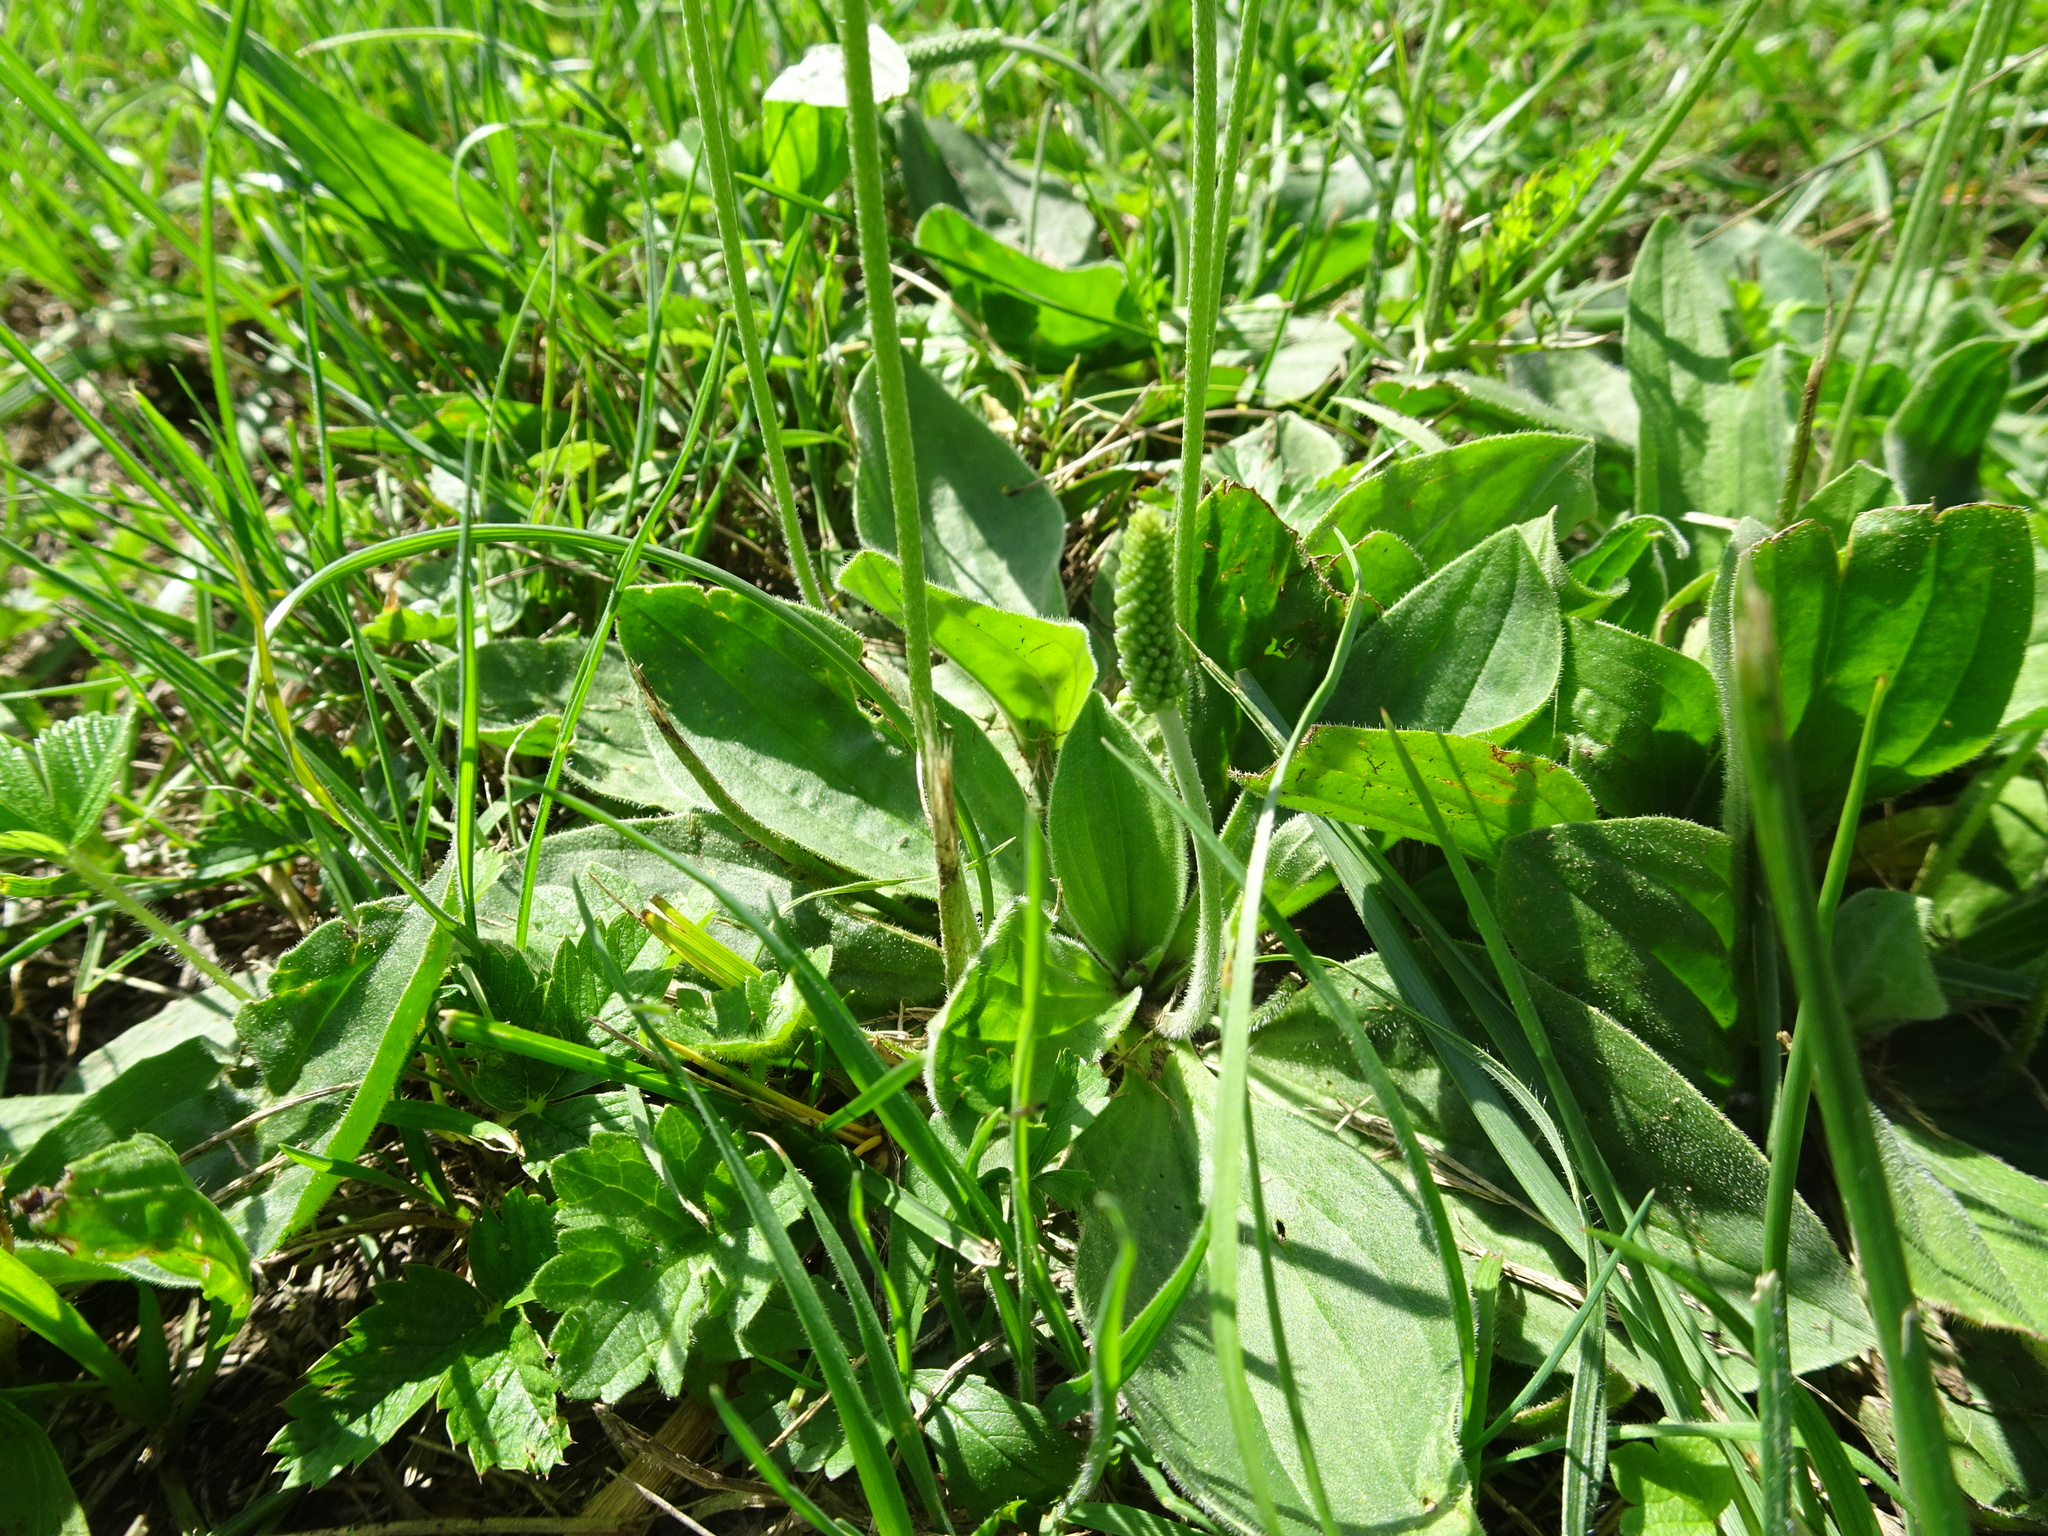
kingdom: Plantae
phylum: Tracheophyta
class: Magnoliopsida
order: Lamiales
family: Plantaginaceae
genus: Plantago
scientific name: Plantago media
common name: Hoary plantain
